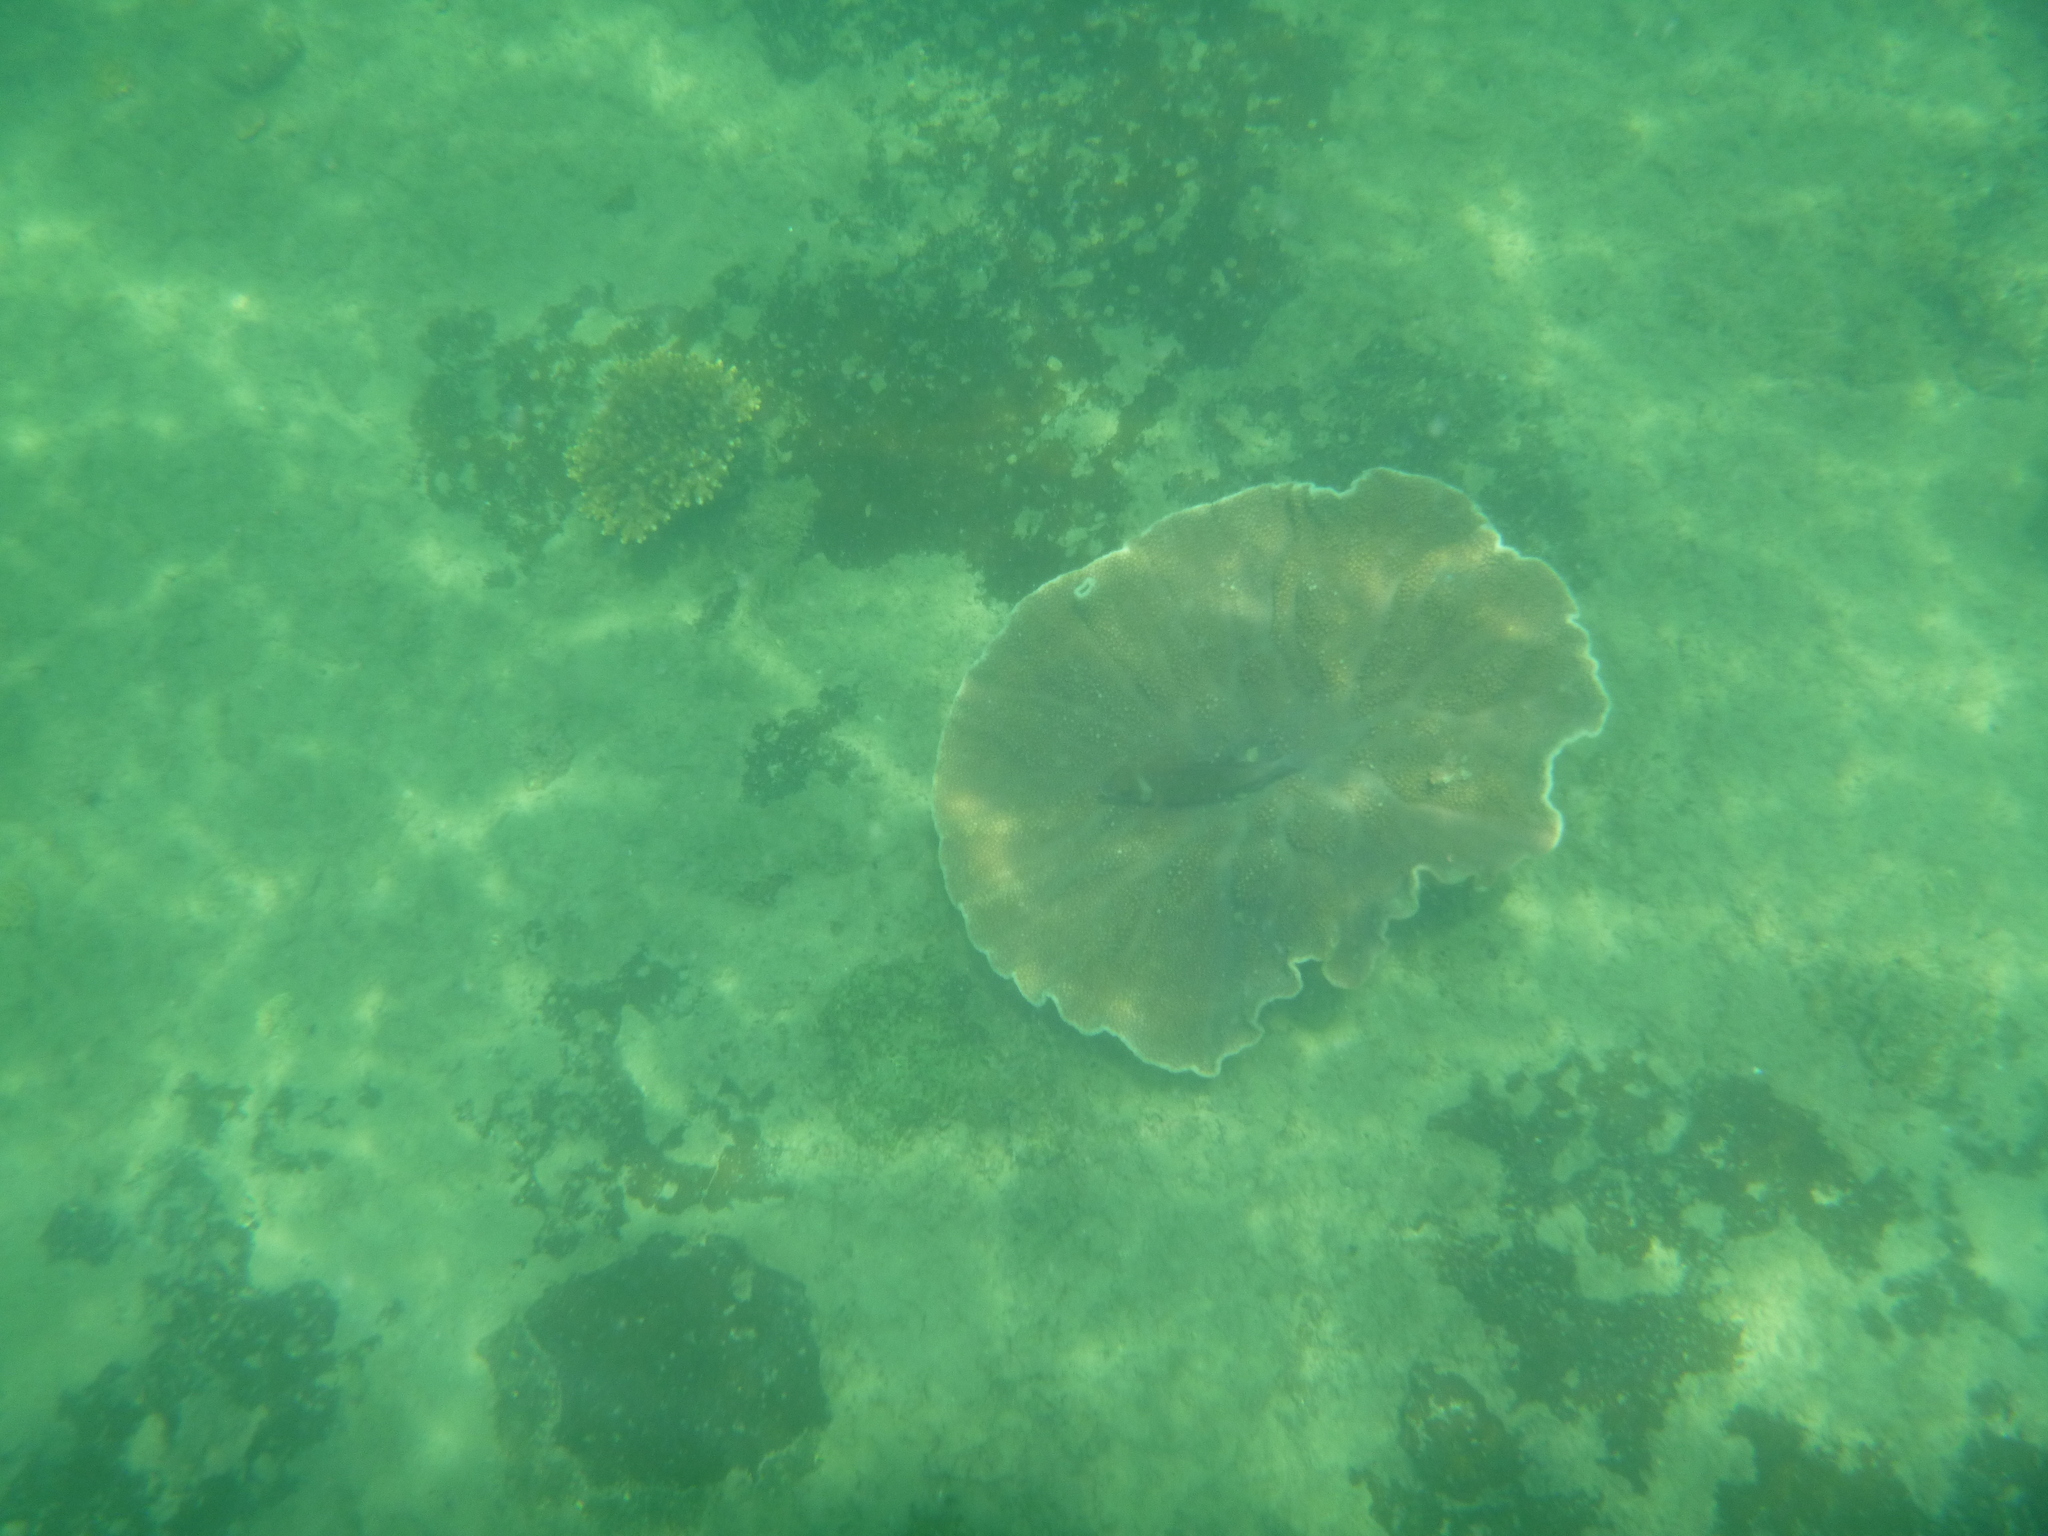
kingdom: Animalia
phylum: Chordata
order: Perciformes
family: Nemipteridae
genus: Scolopsis
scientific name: Scolopsis vosmeri
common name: Whitecheek monocle bream
